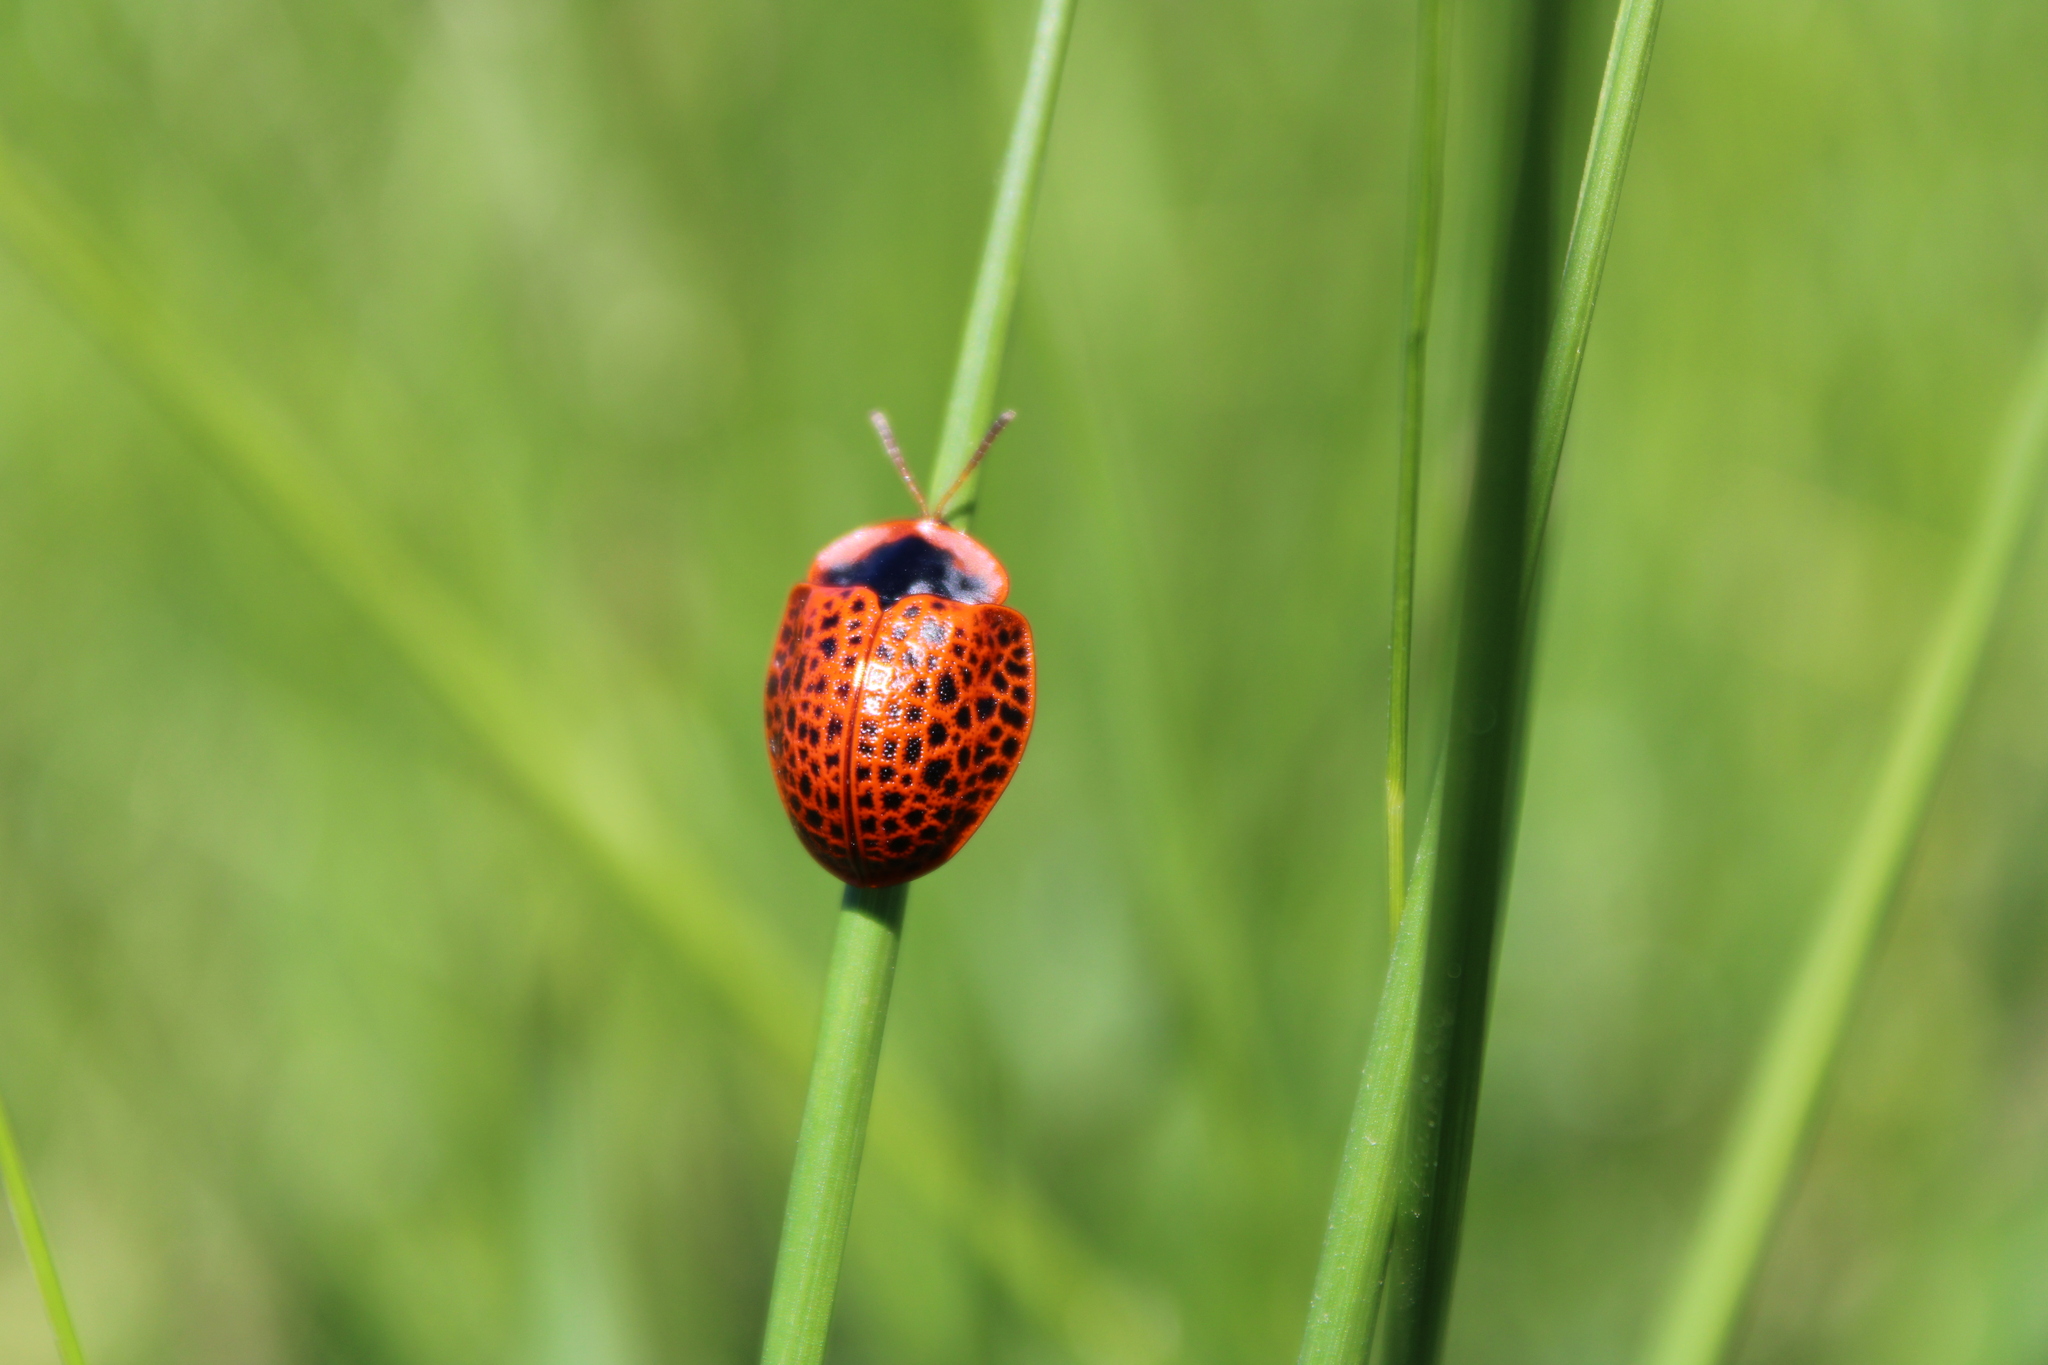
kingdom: Animalia
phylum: Arthropoda
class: Insecta
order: Coleoptera
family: Chrysomelidae
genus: Botanochara
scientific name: Botanochara macularia
